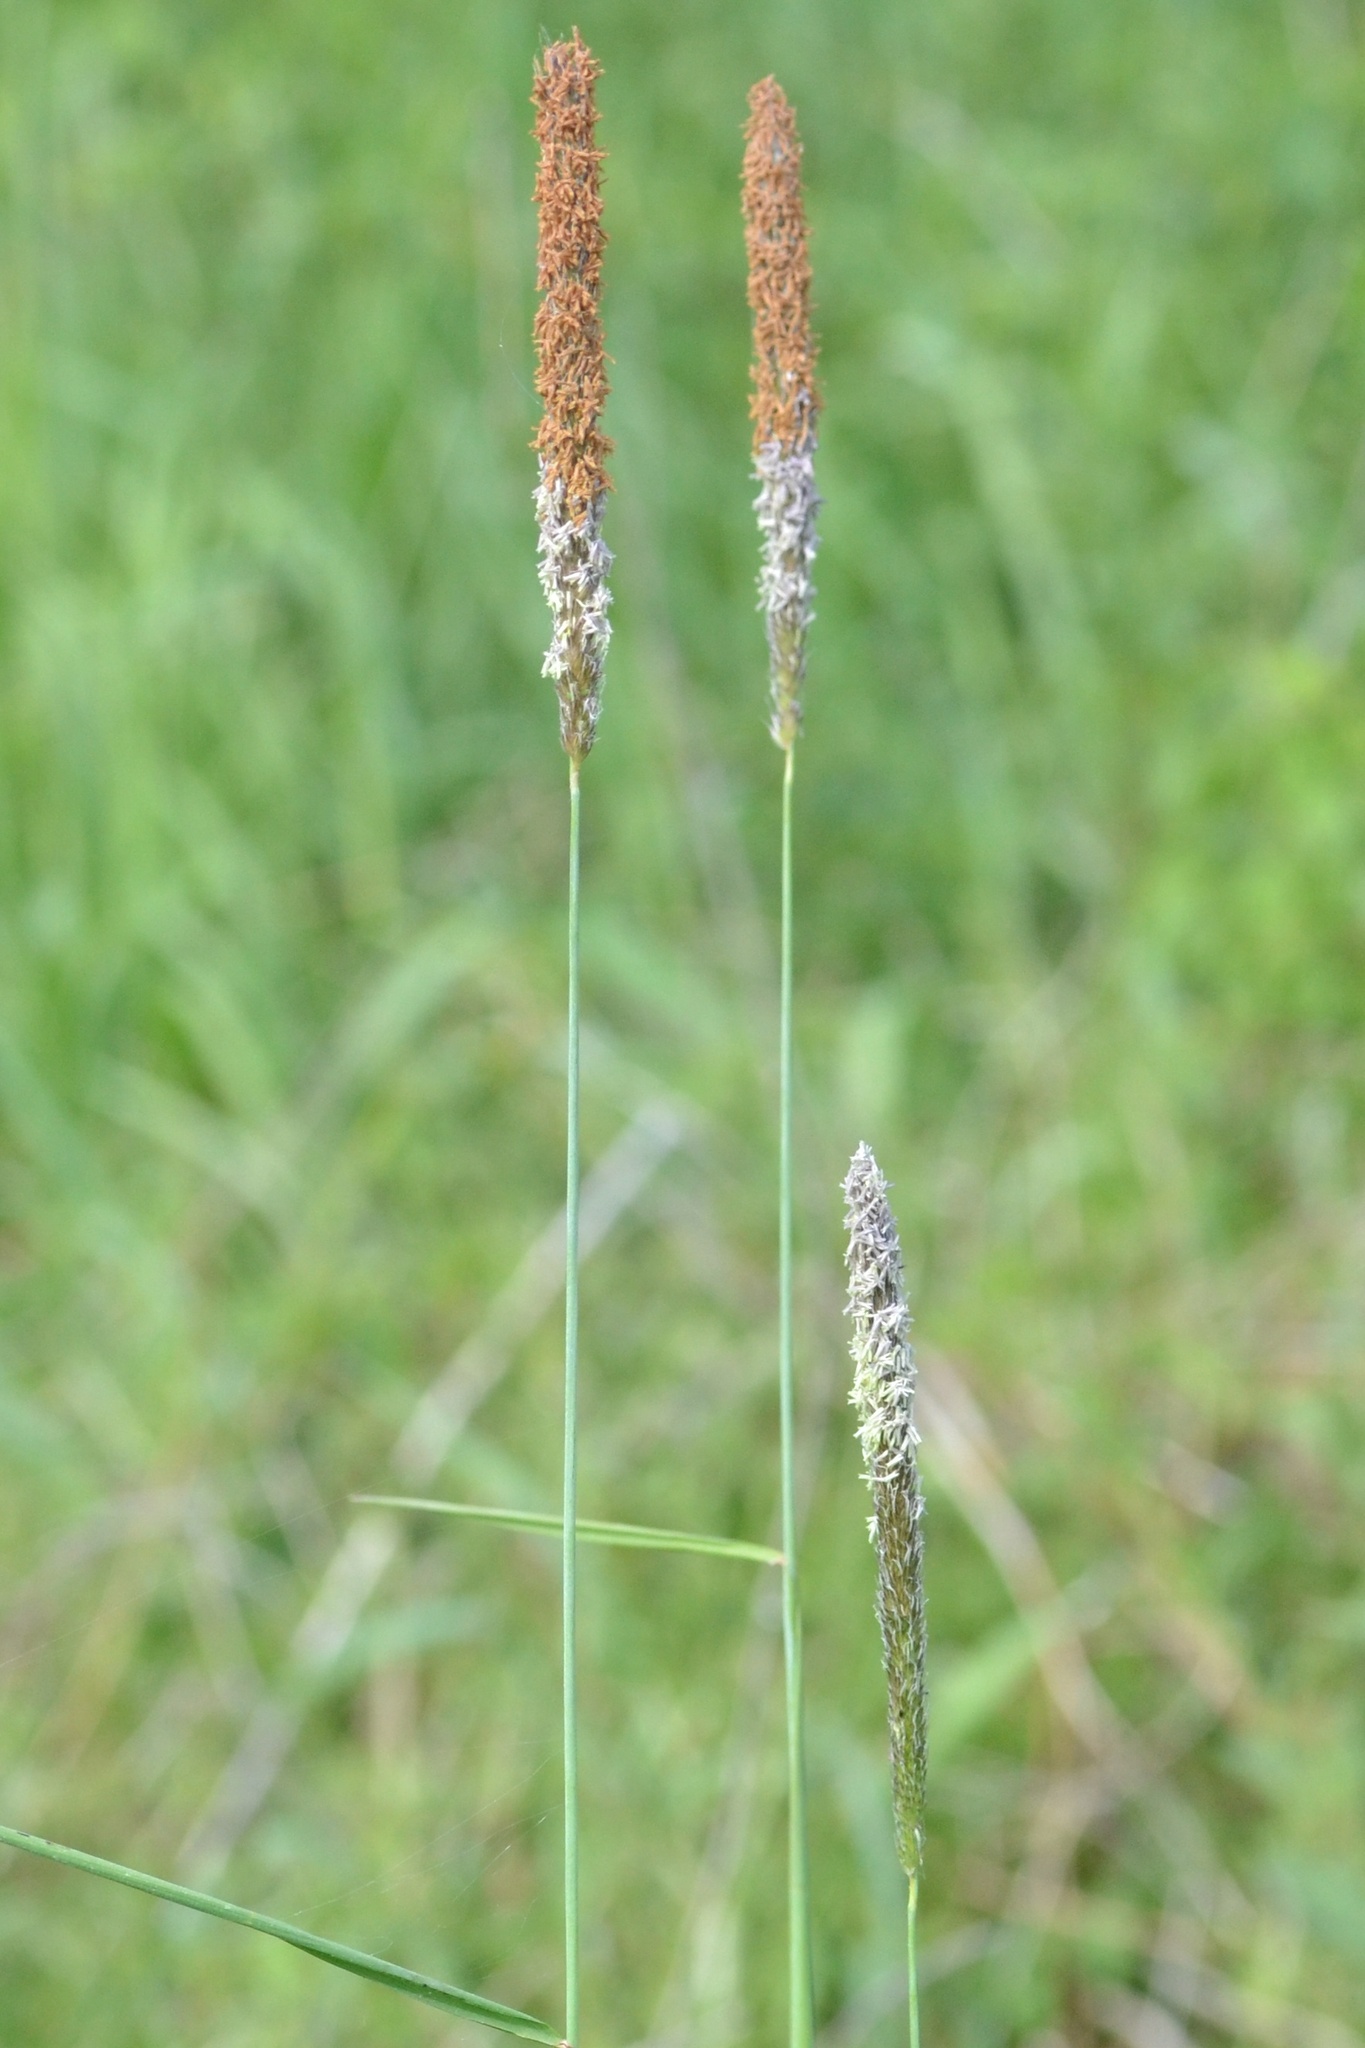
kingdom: Plantae
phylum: Tracheophyta
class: Liliopsida
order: Poales
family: Poaceae
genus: Alopecurus
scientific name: Alopecurus pratensis
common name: Meadow foxtail
